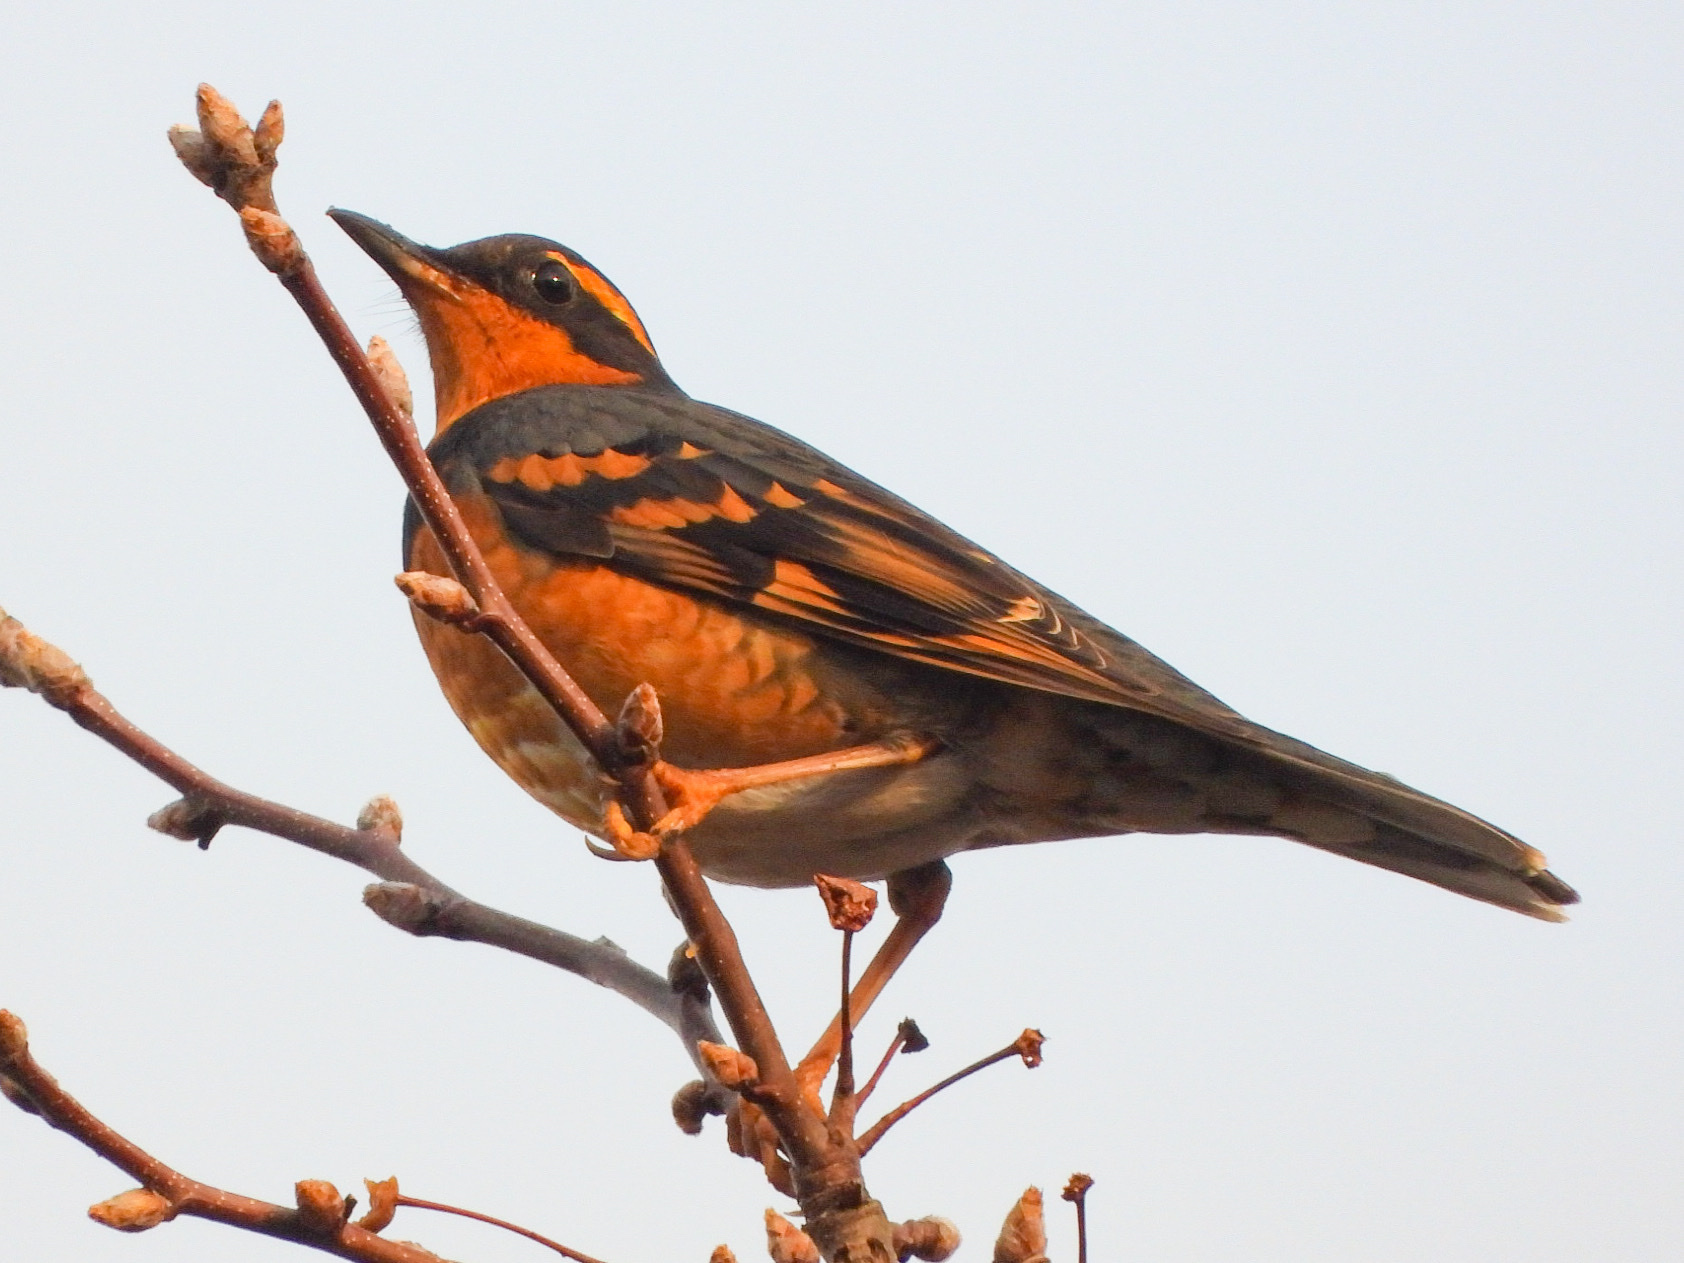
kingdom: Animalia
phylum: Chordata
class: Aves
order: Passeriformes
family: Turdidae
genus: Ixoreus
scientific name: Ixoreus naevius
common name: Varied thrush
